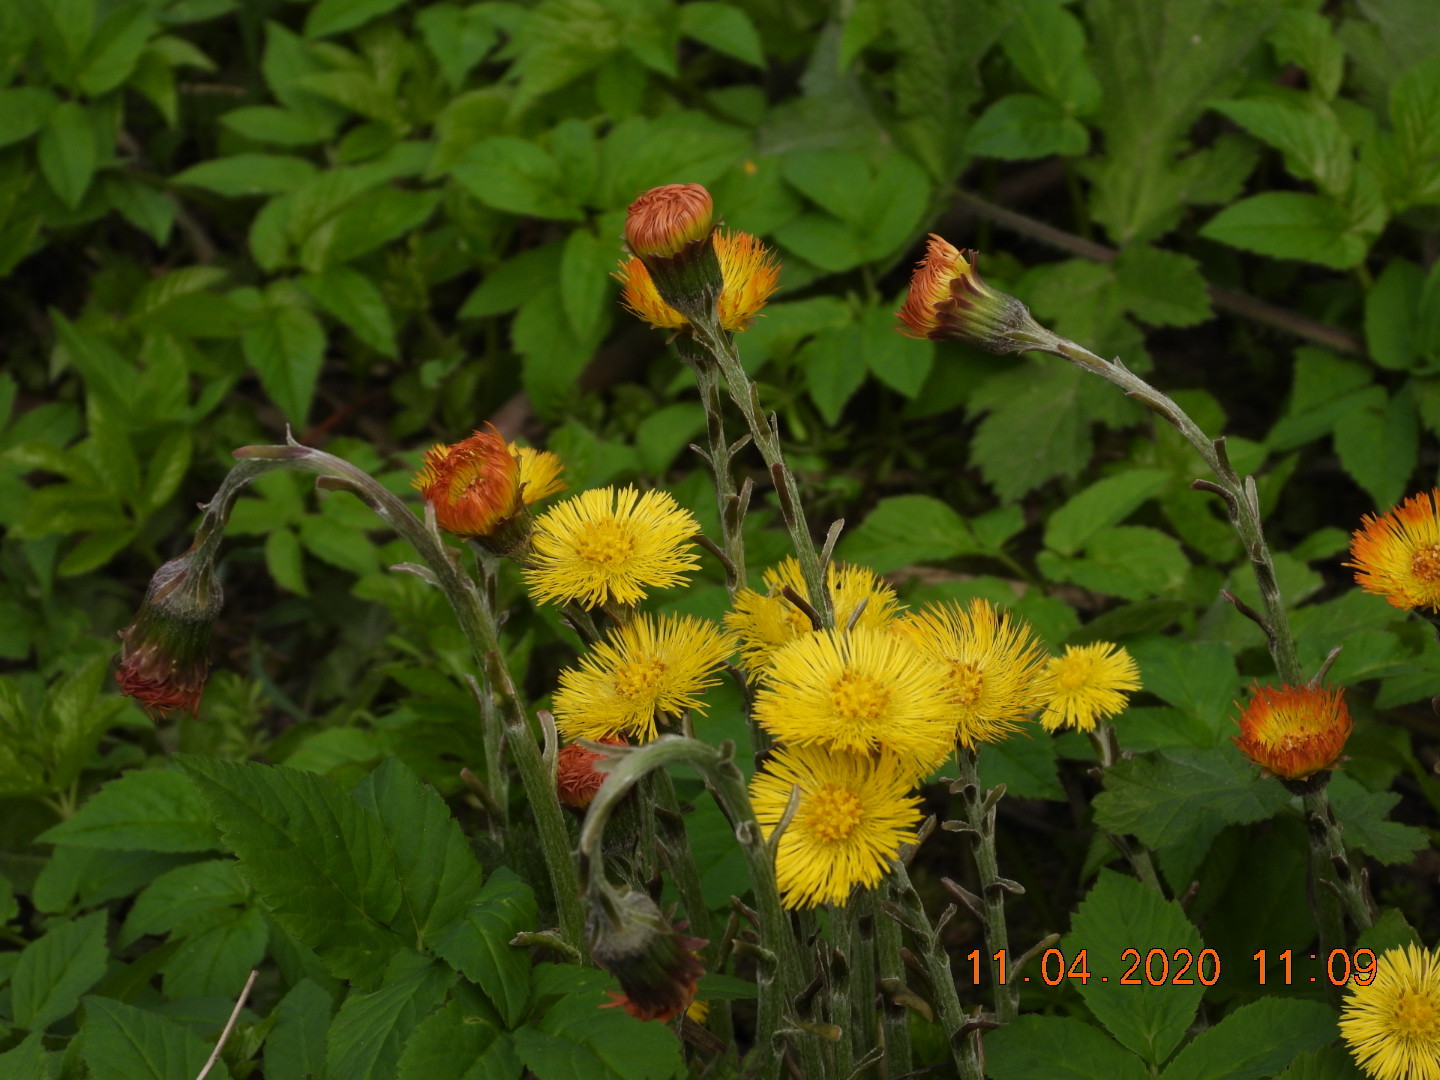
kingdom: Plantae
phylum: Tracheophyta
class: Magnoliopsida
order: Asterales
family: Asteraceae
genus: Tussilago
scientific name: Tussilago farfara
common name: Coltsfoot
